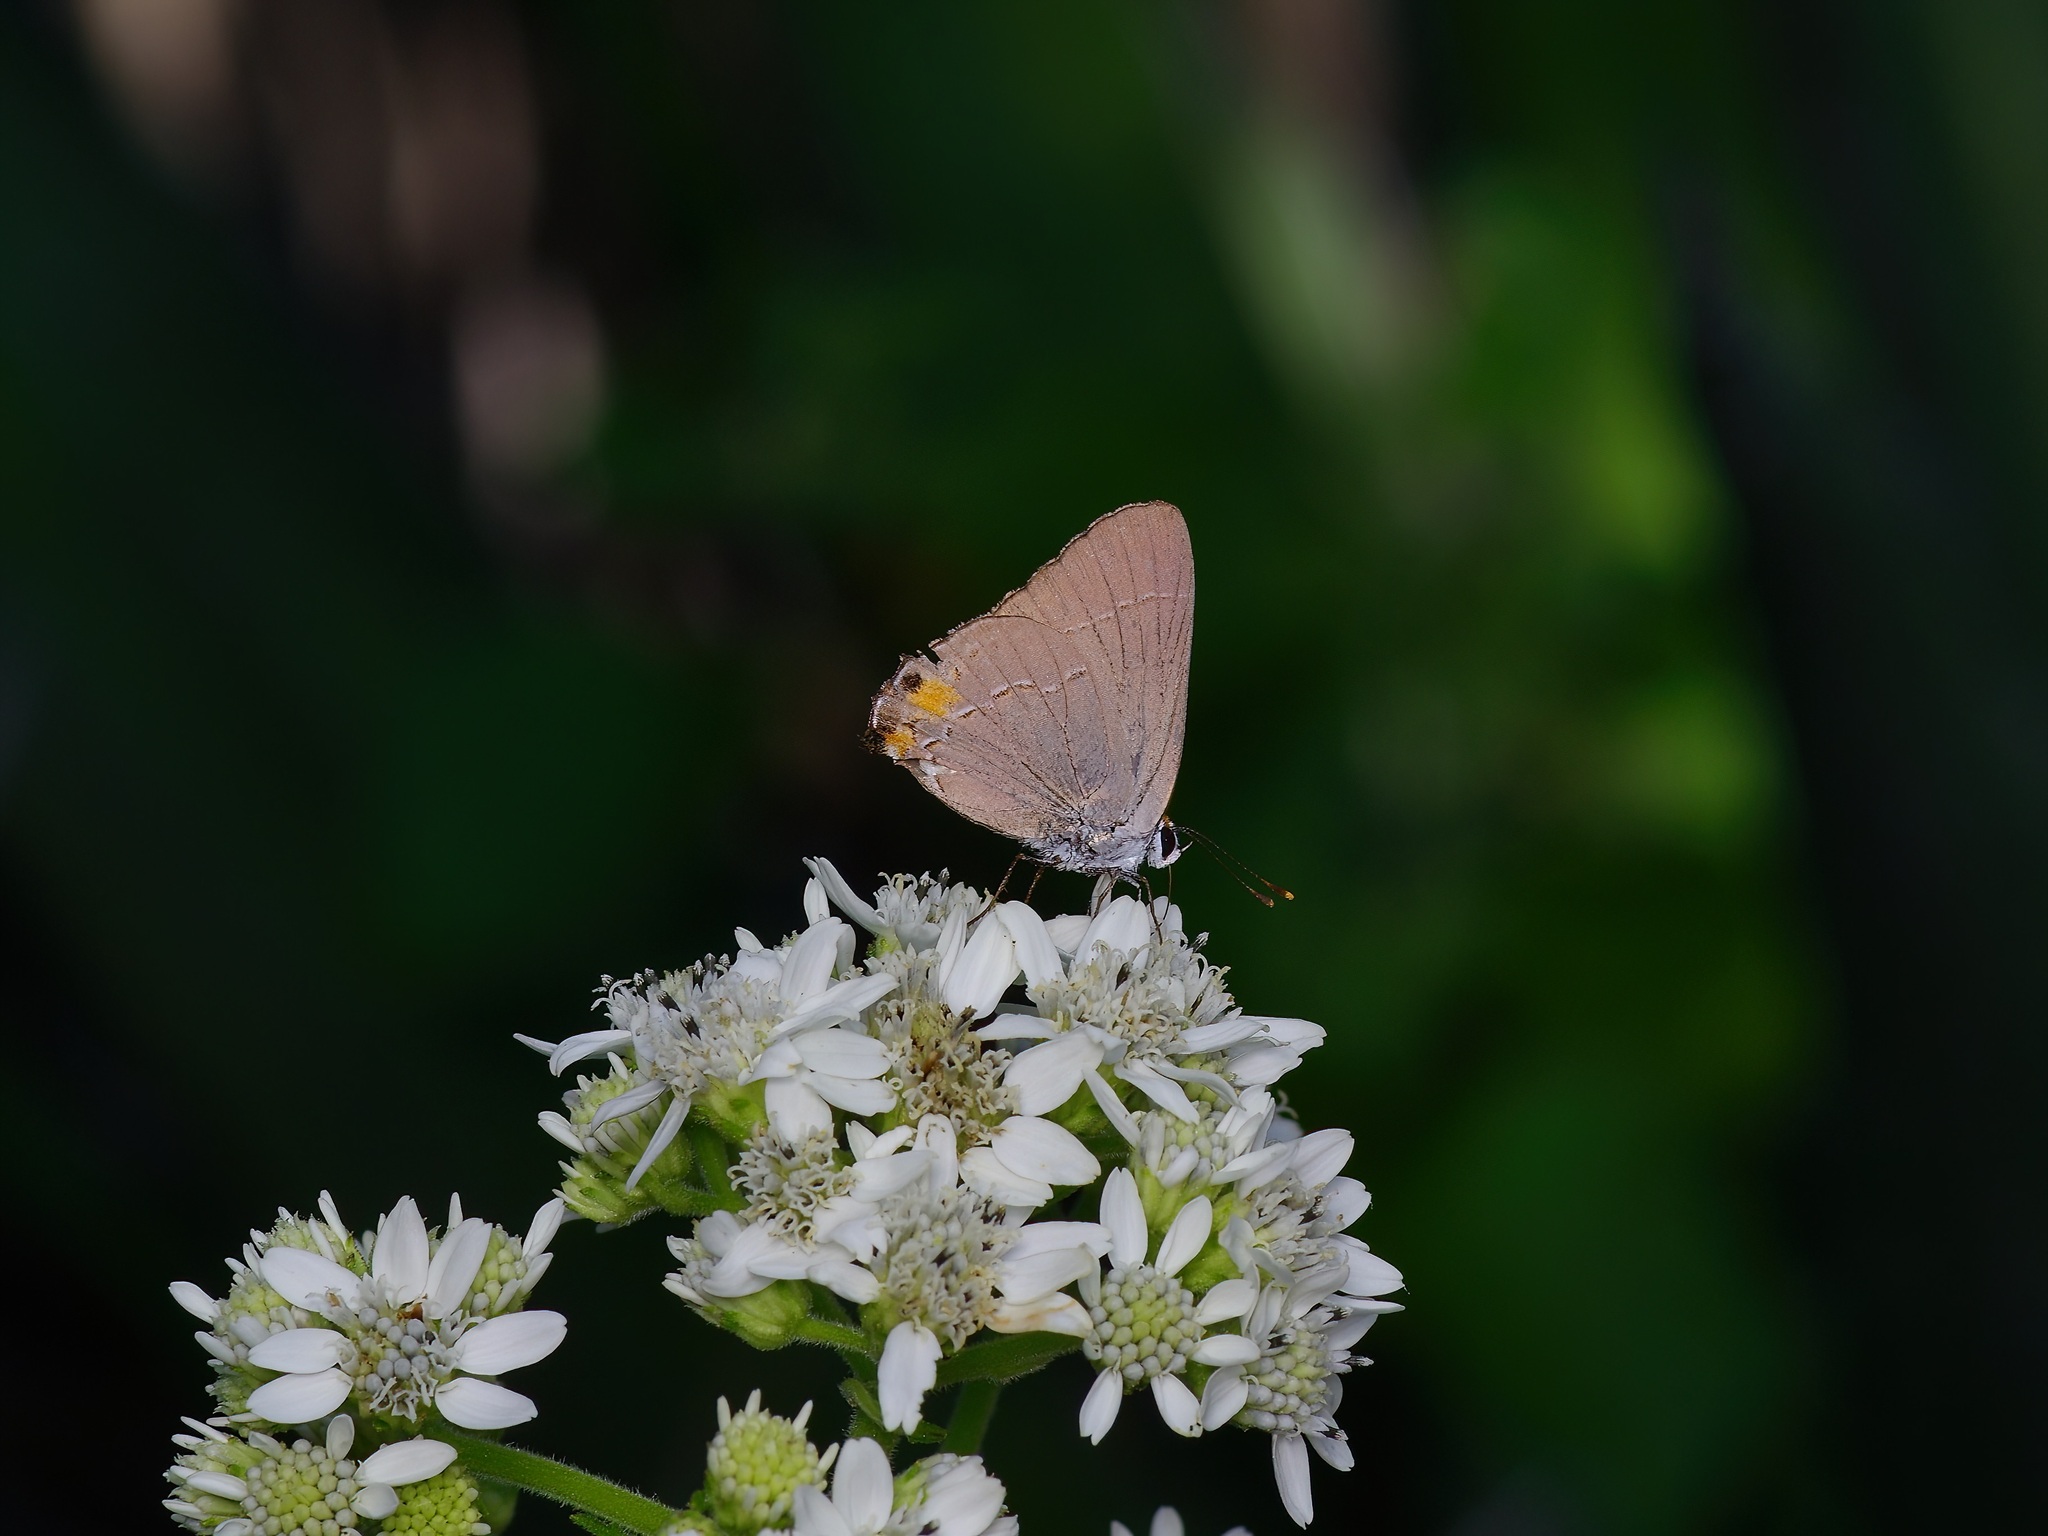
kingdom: Animalia
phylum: Arthropoda
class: Insecta
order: Lepidoptera
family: Lycaenidae
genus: Strymon
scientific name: Strymon melinus
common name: Gray hairstreak
